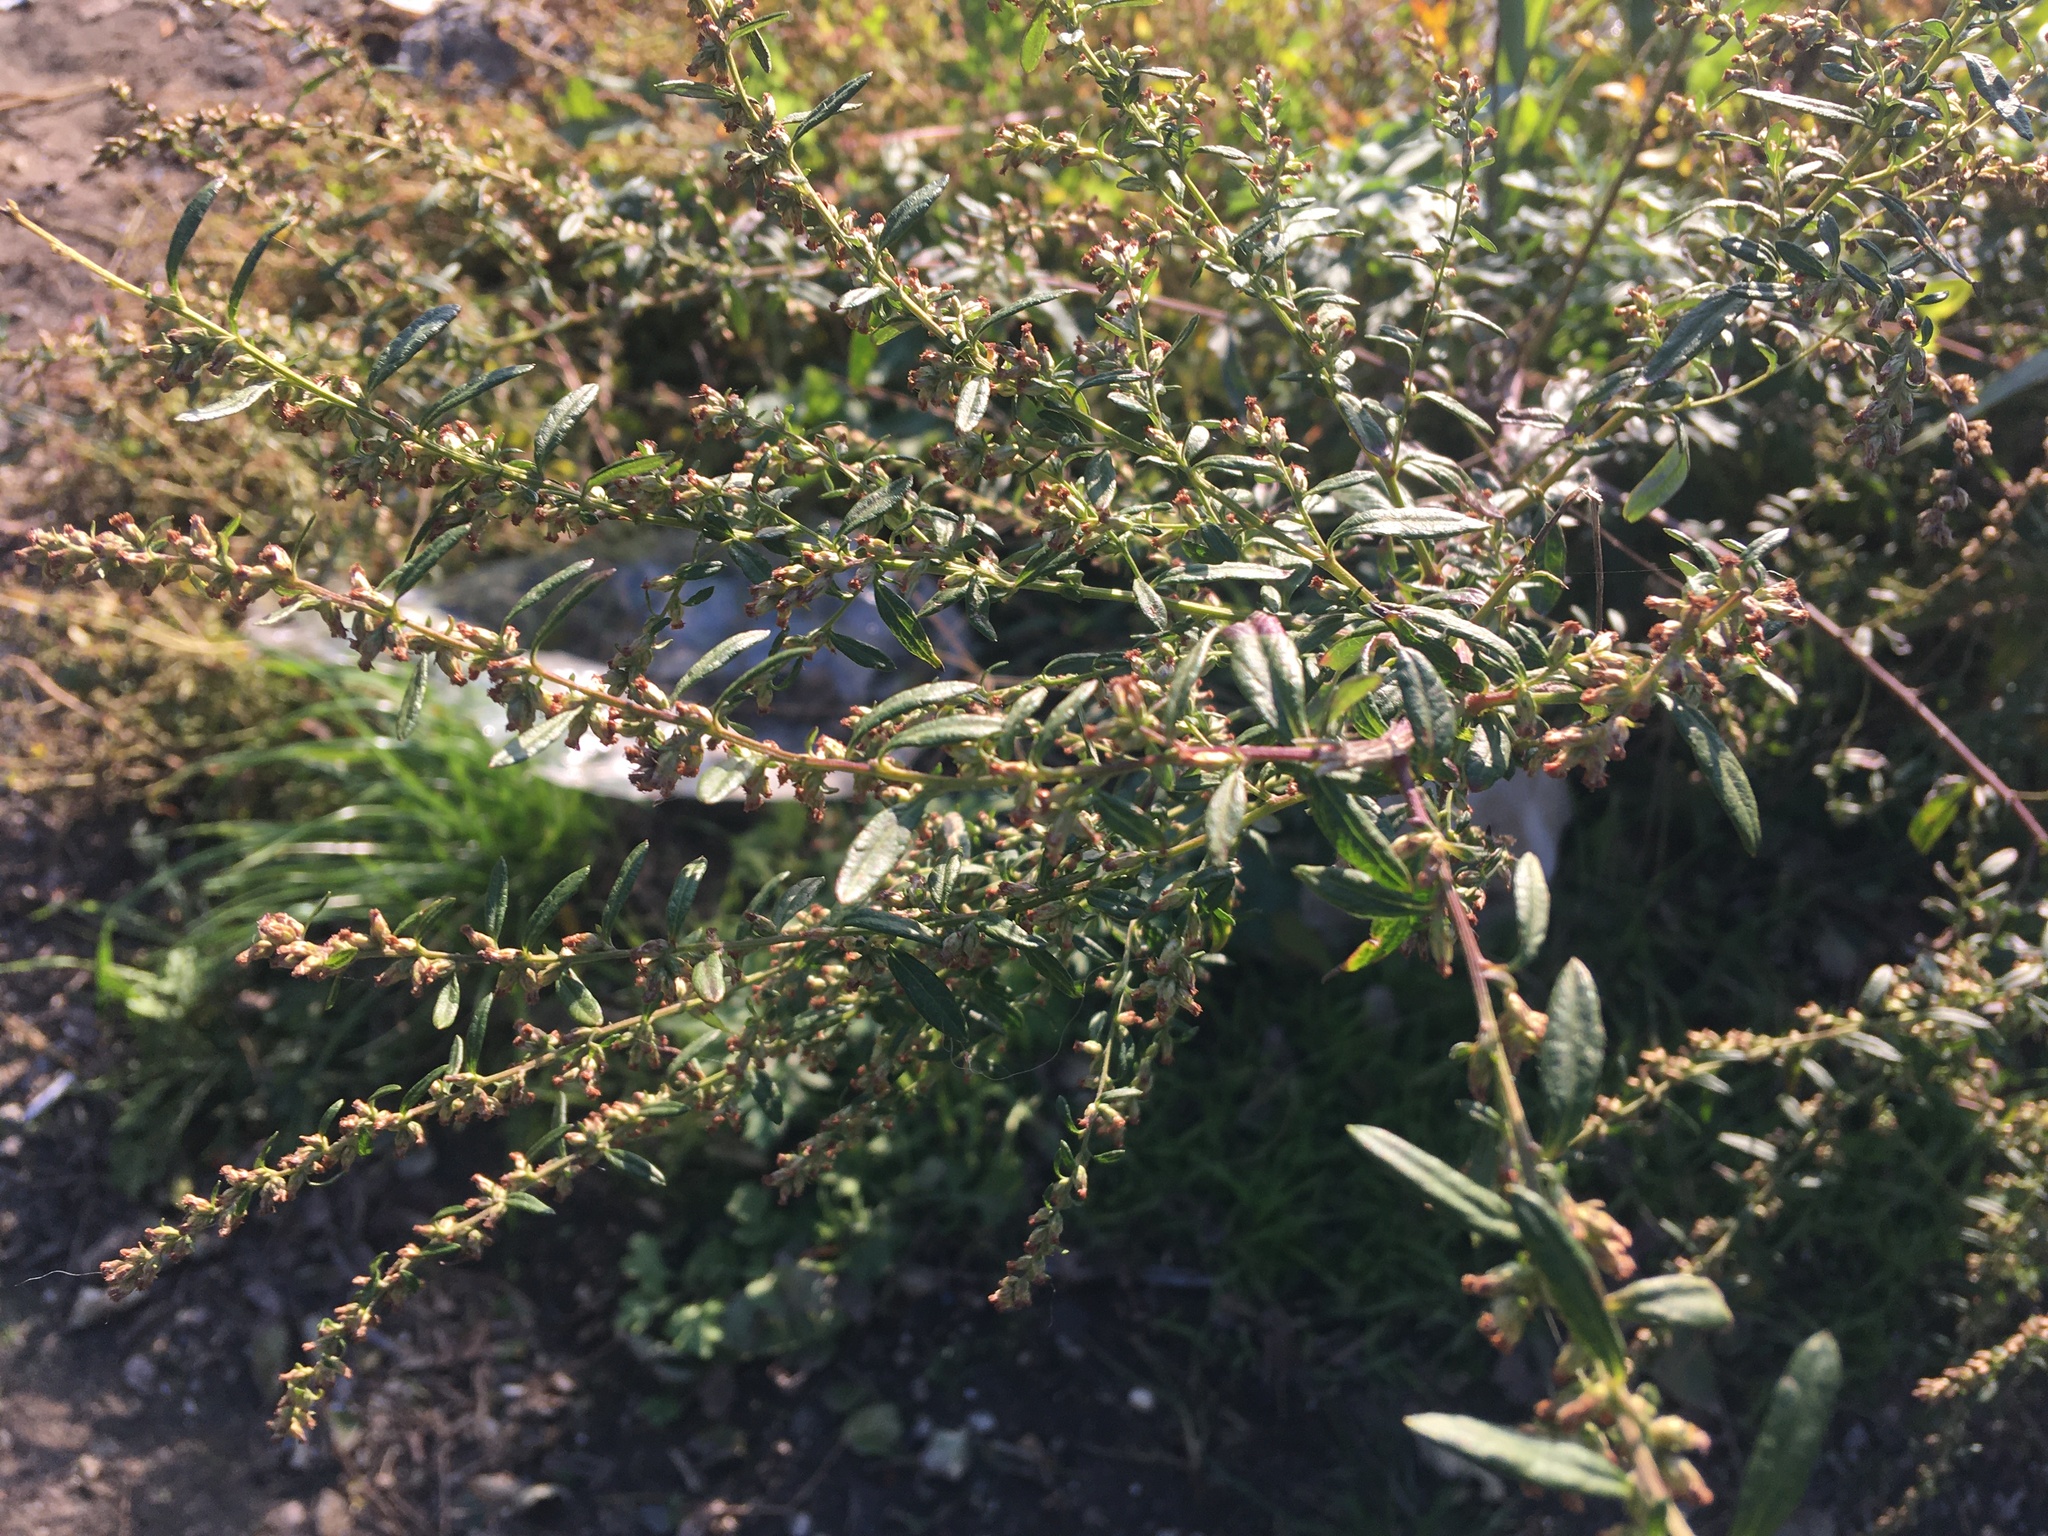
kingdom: Plantae
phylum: Tracheophyta
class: Magnoliopsida
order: Asterales
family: Asteraceae
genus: Artemisia
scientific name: Artemisia vulgaris
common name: Mugwort
